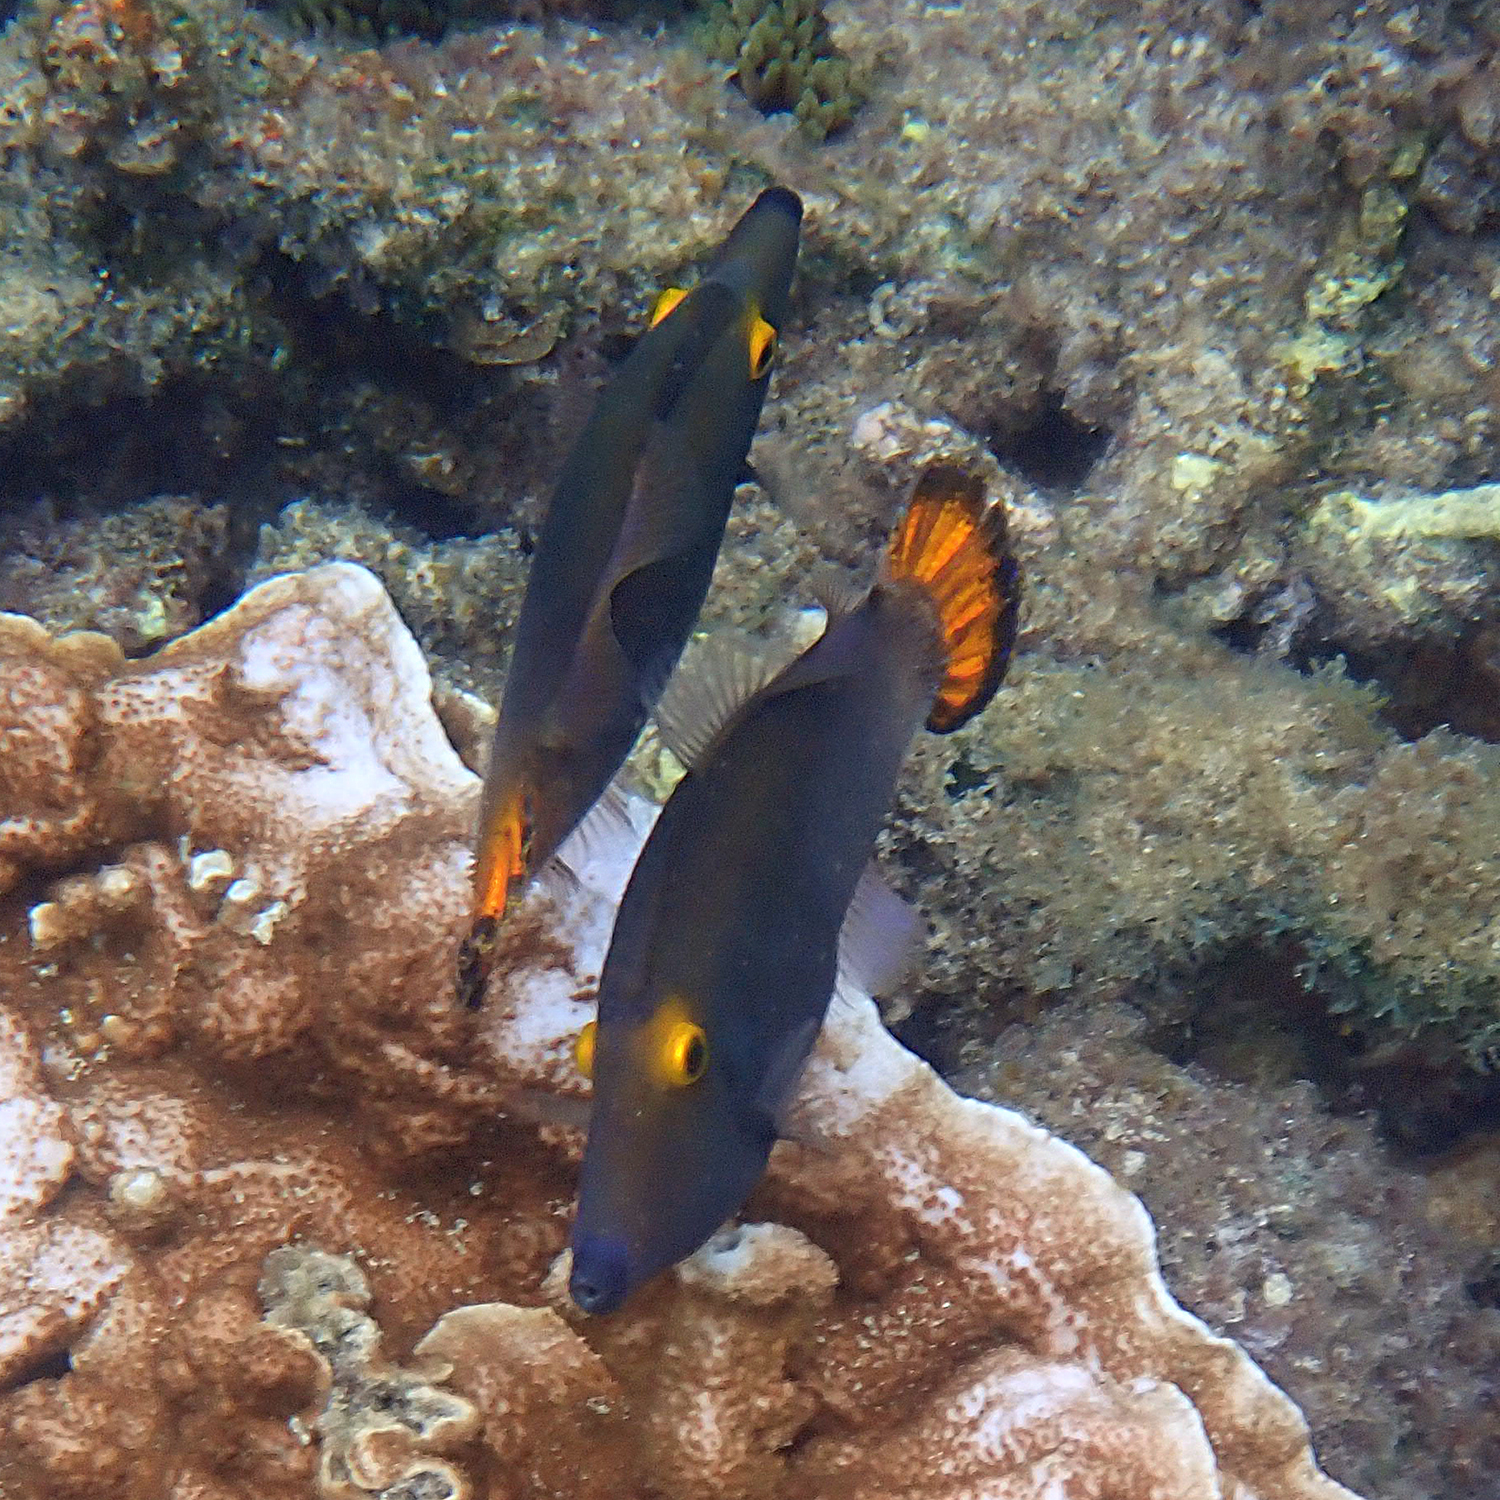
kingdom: Animalia
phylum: Chordata
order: Tetraodontiformes
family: Monacanthidae
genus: Pervagor
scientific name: Pervagor alternans
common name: Yelloweye filefish
